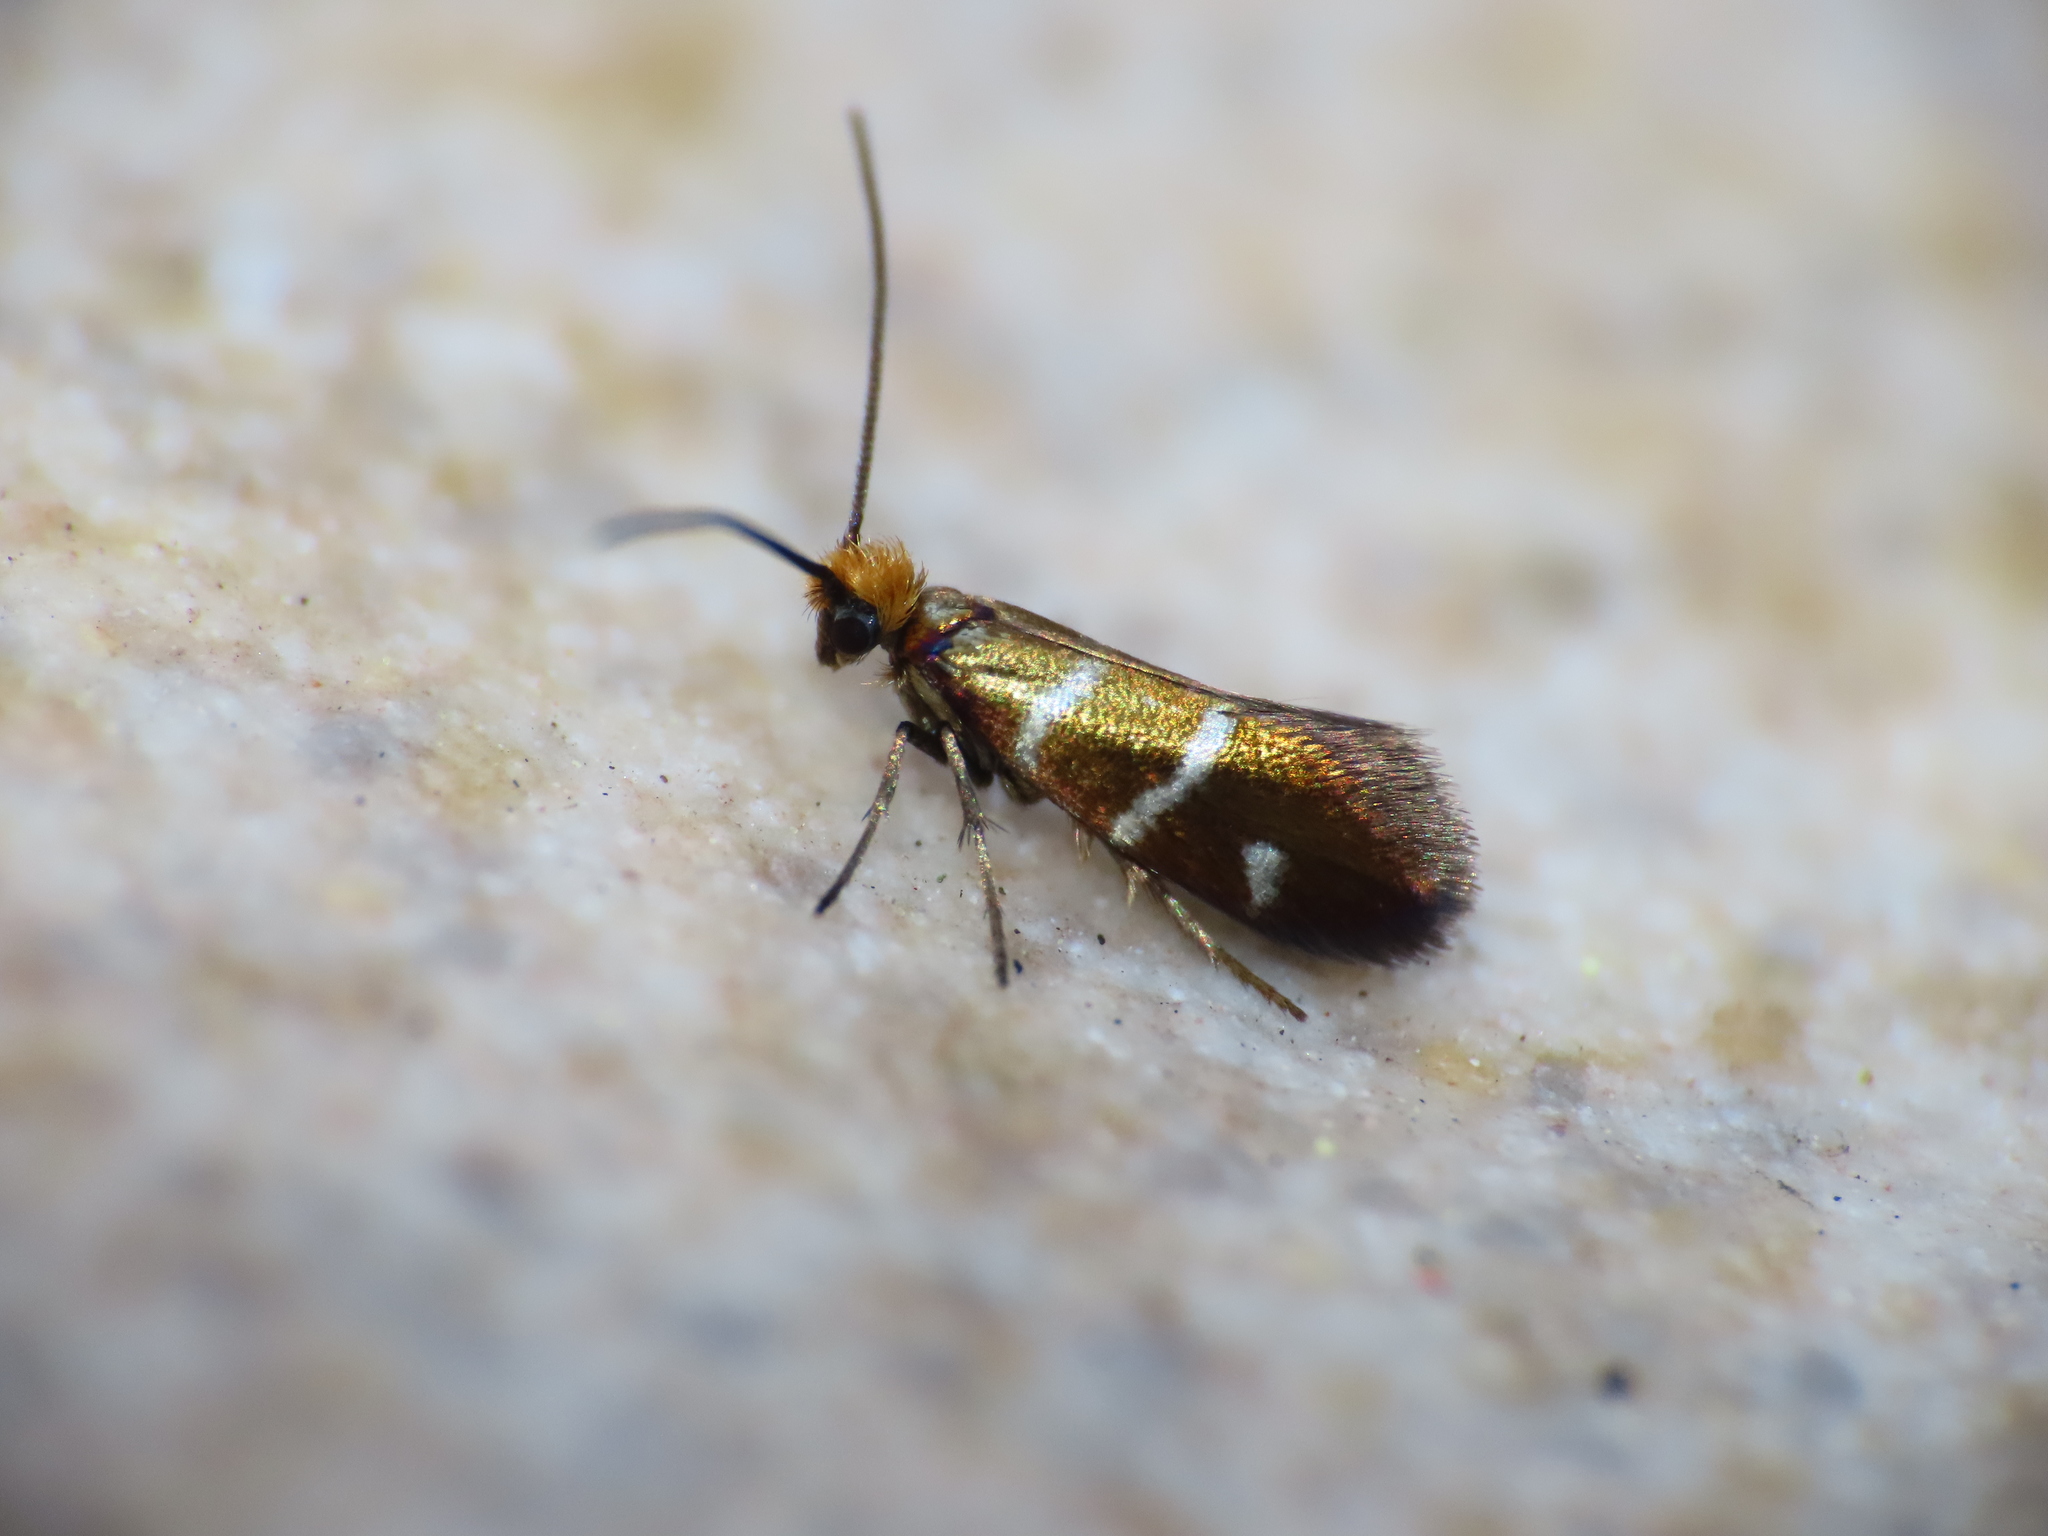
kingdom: Animalia
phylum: Arthropoda
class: Insecta
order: Lepidoptera
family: Micropterigidae
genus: Micropterix
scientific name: Micropterix aruncella
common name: White-barred gold
